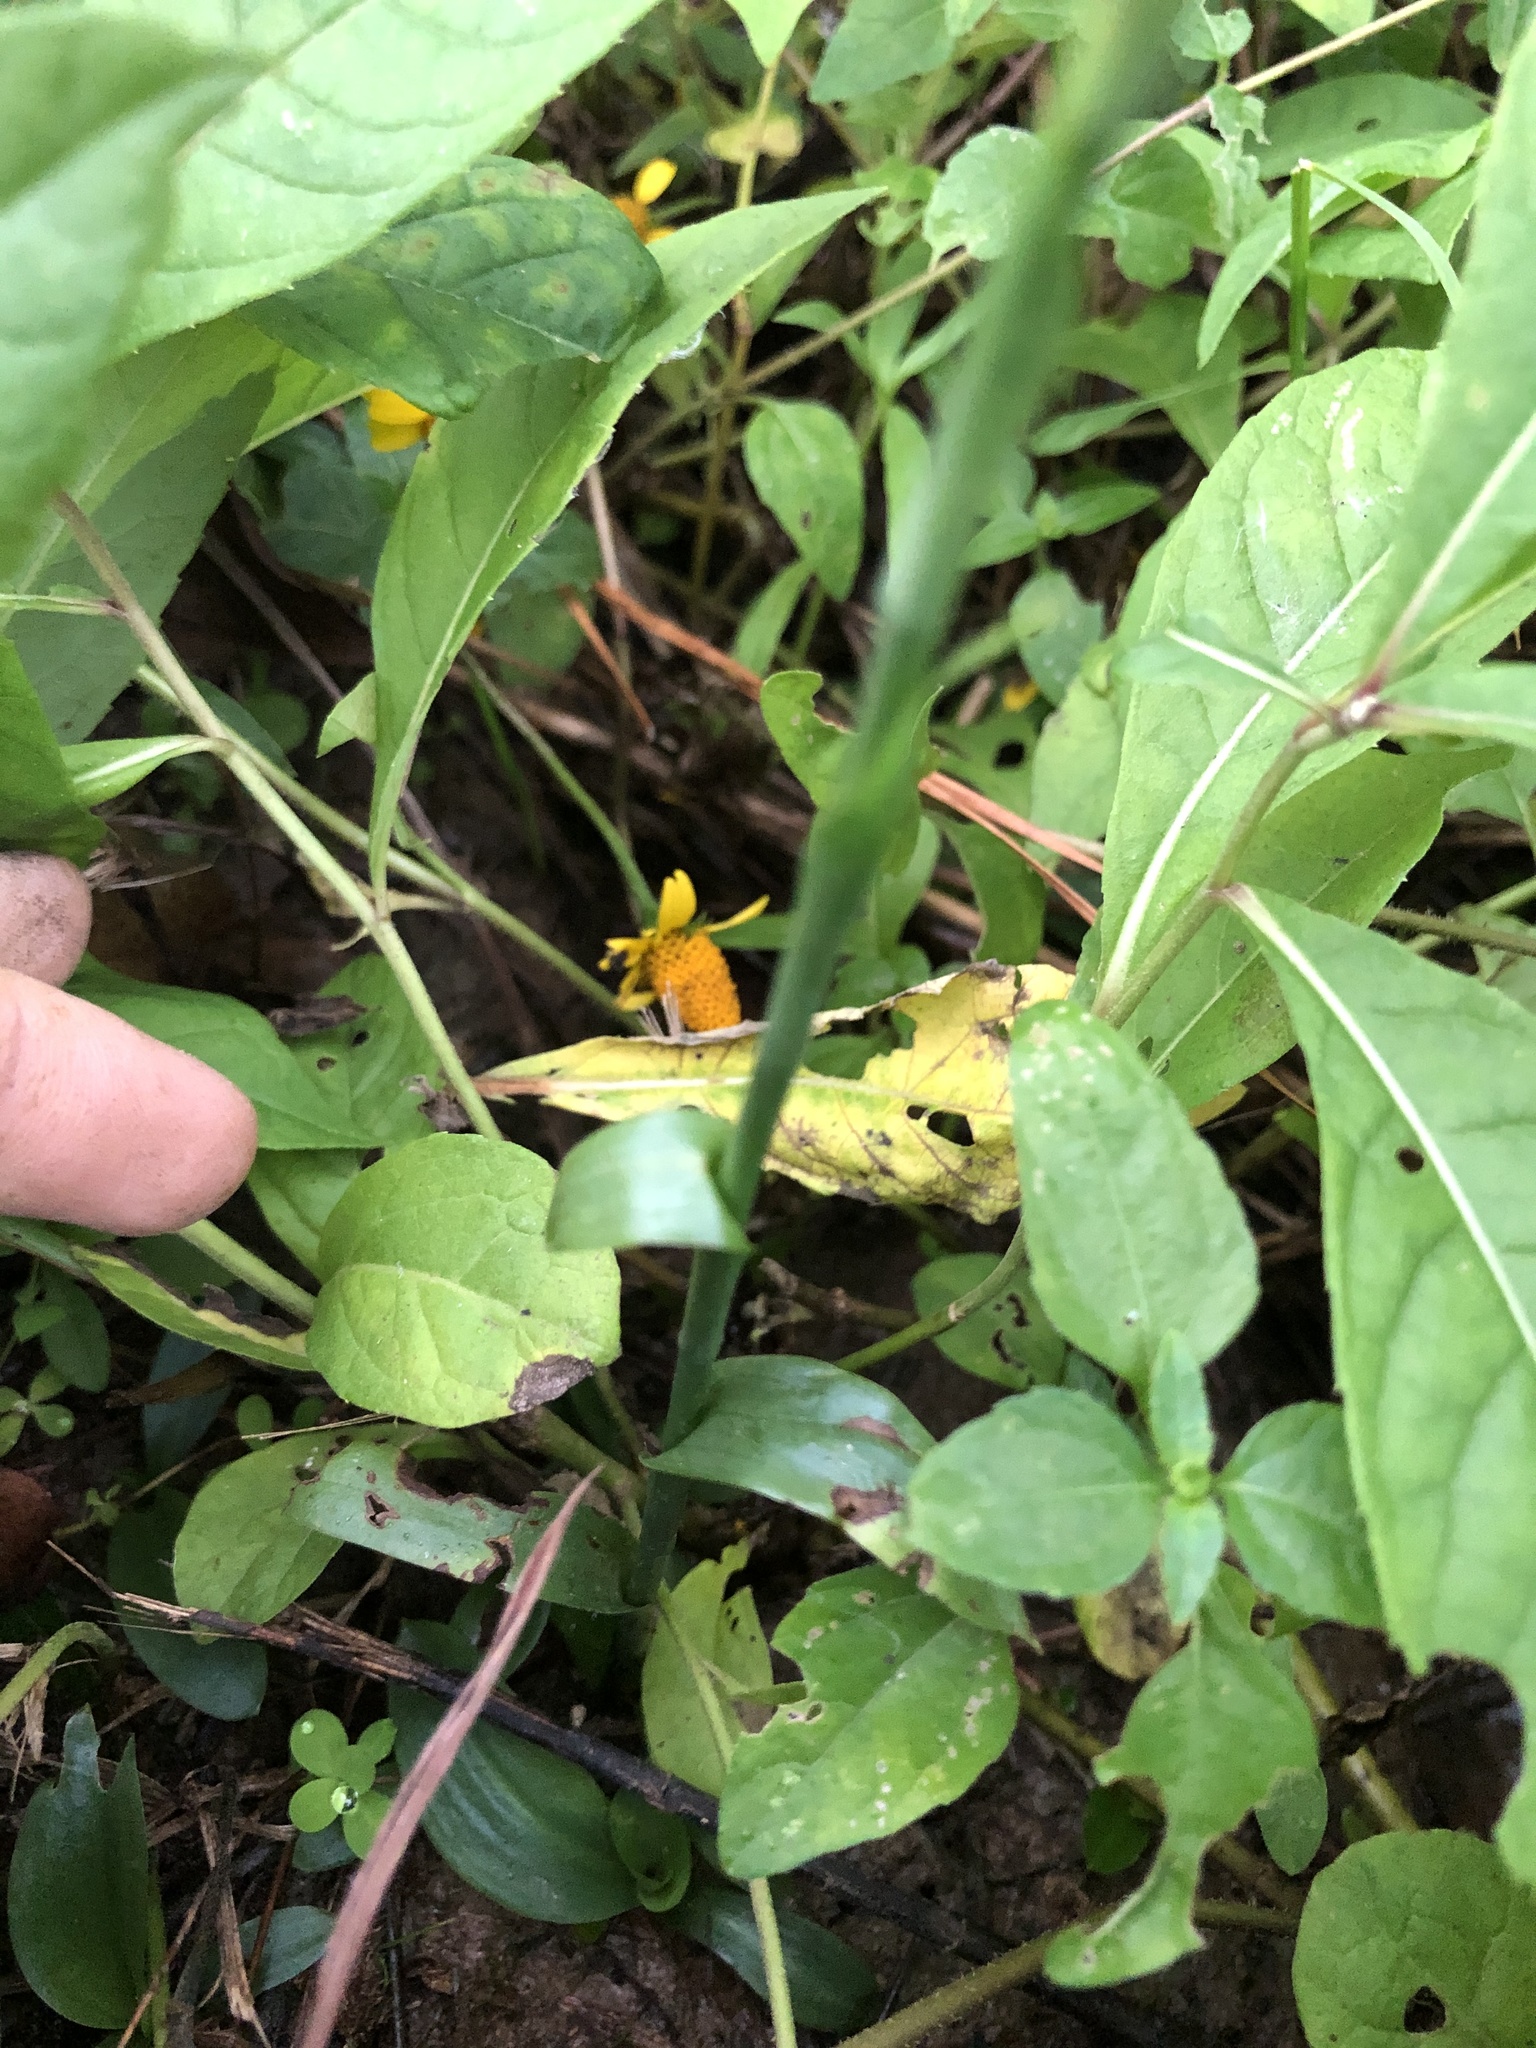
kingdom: Plantae
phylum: Tracheophyta
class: Liliopsida
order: Asparagales
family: Orchidaceae
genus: Spiranthes
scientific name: Spiranthes odorata
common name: Marsh ladies'-tresses
